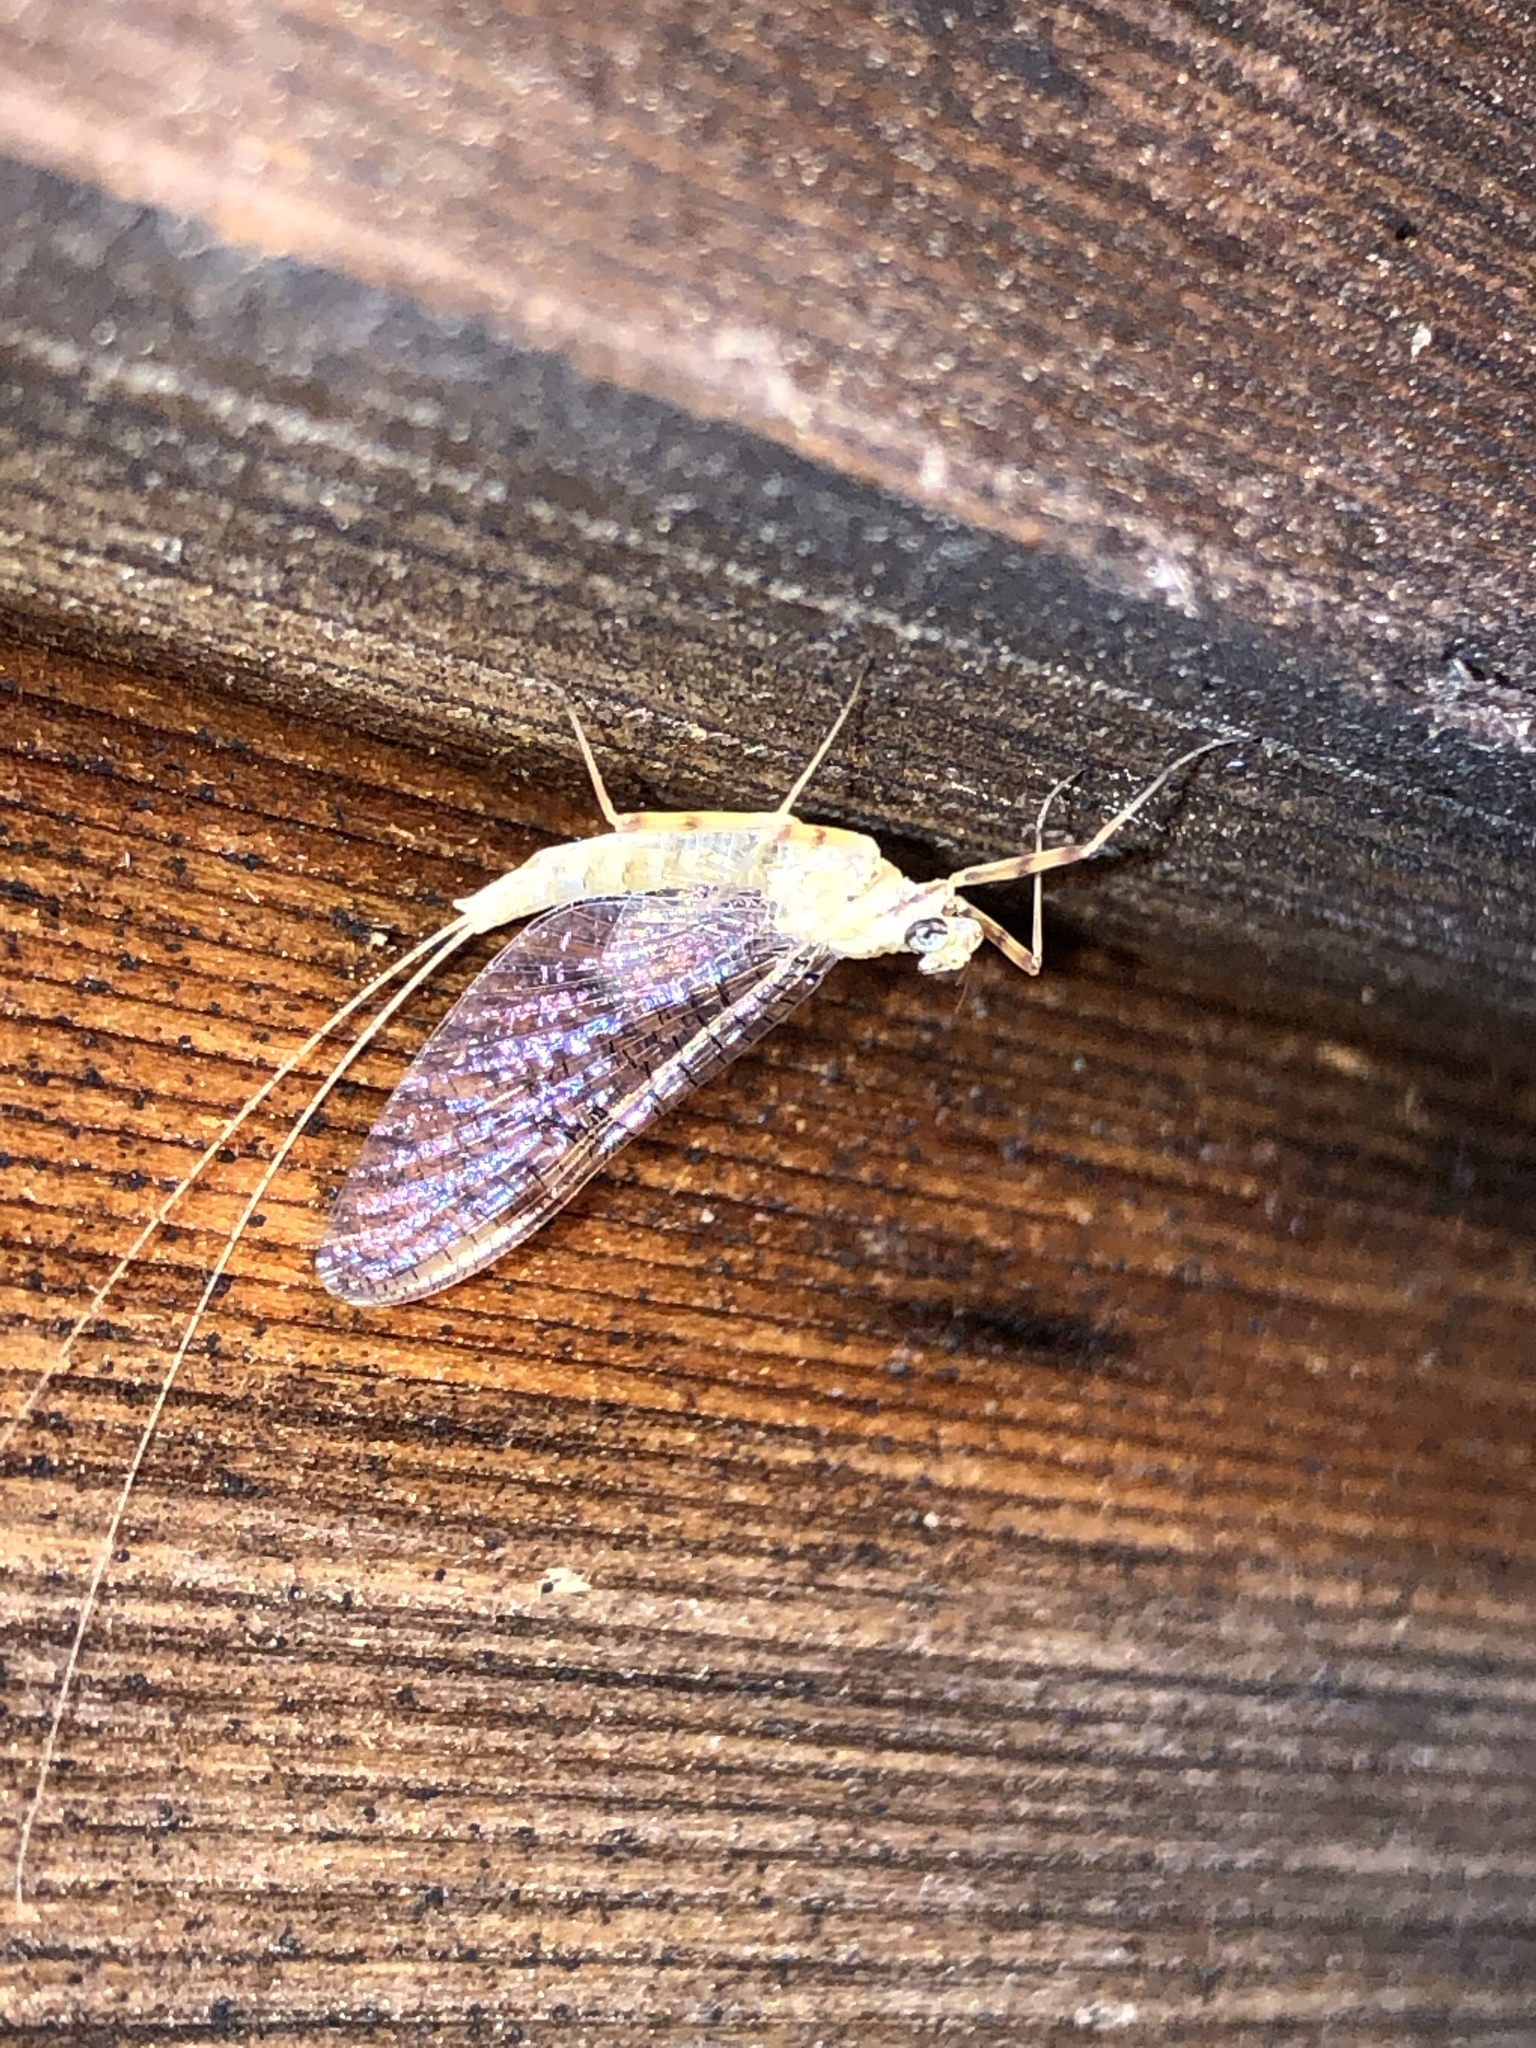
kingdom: Animalia
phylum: Arthropoda
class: Insecta
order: Ephemeroptera
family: Heptageniidae
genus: Stenonema
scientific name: Stenonema femoratum
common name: Dark cahill
